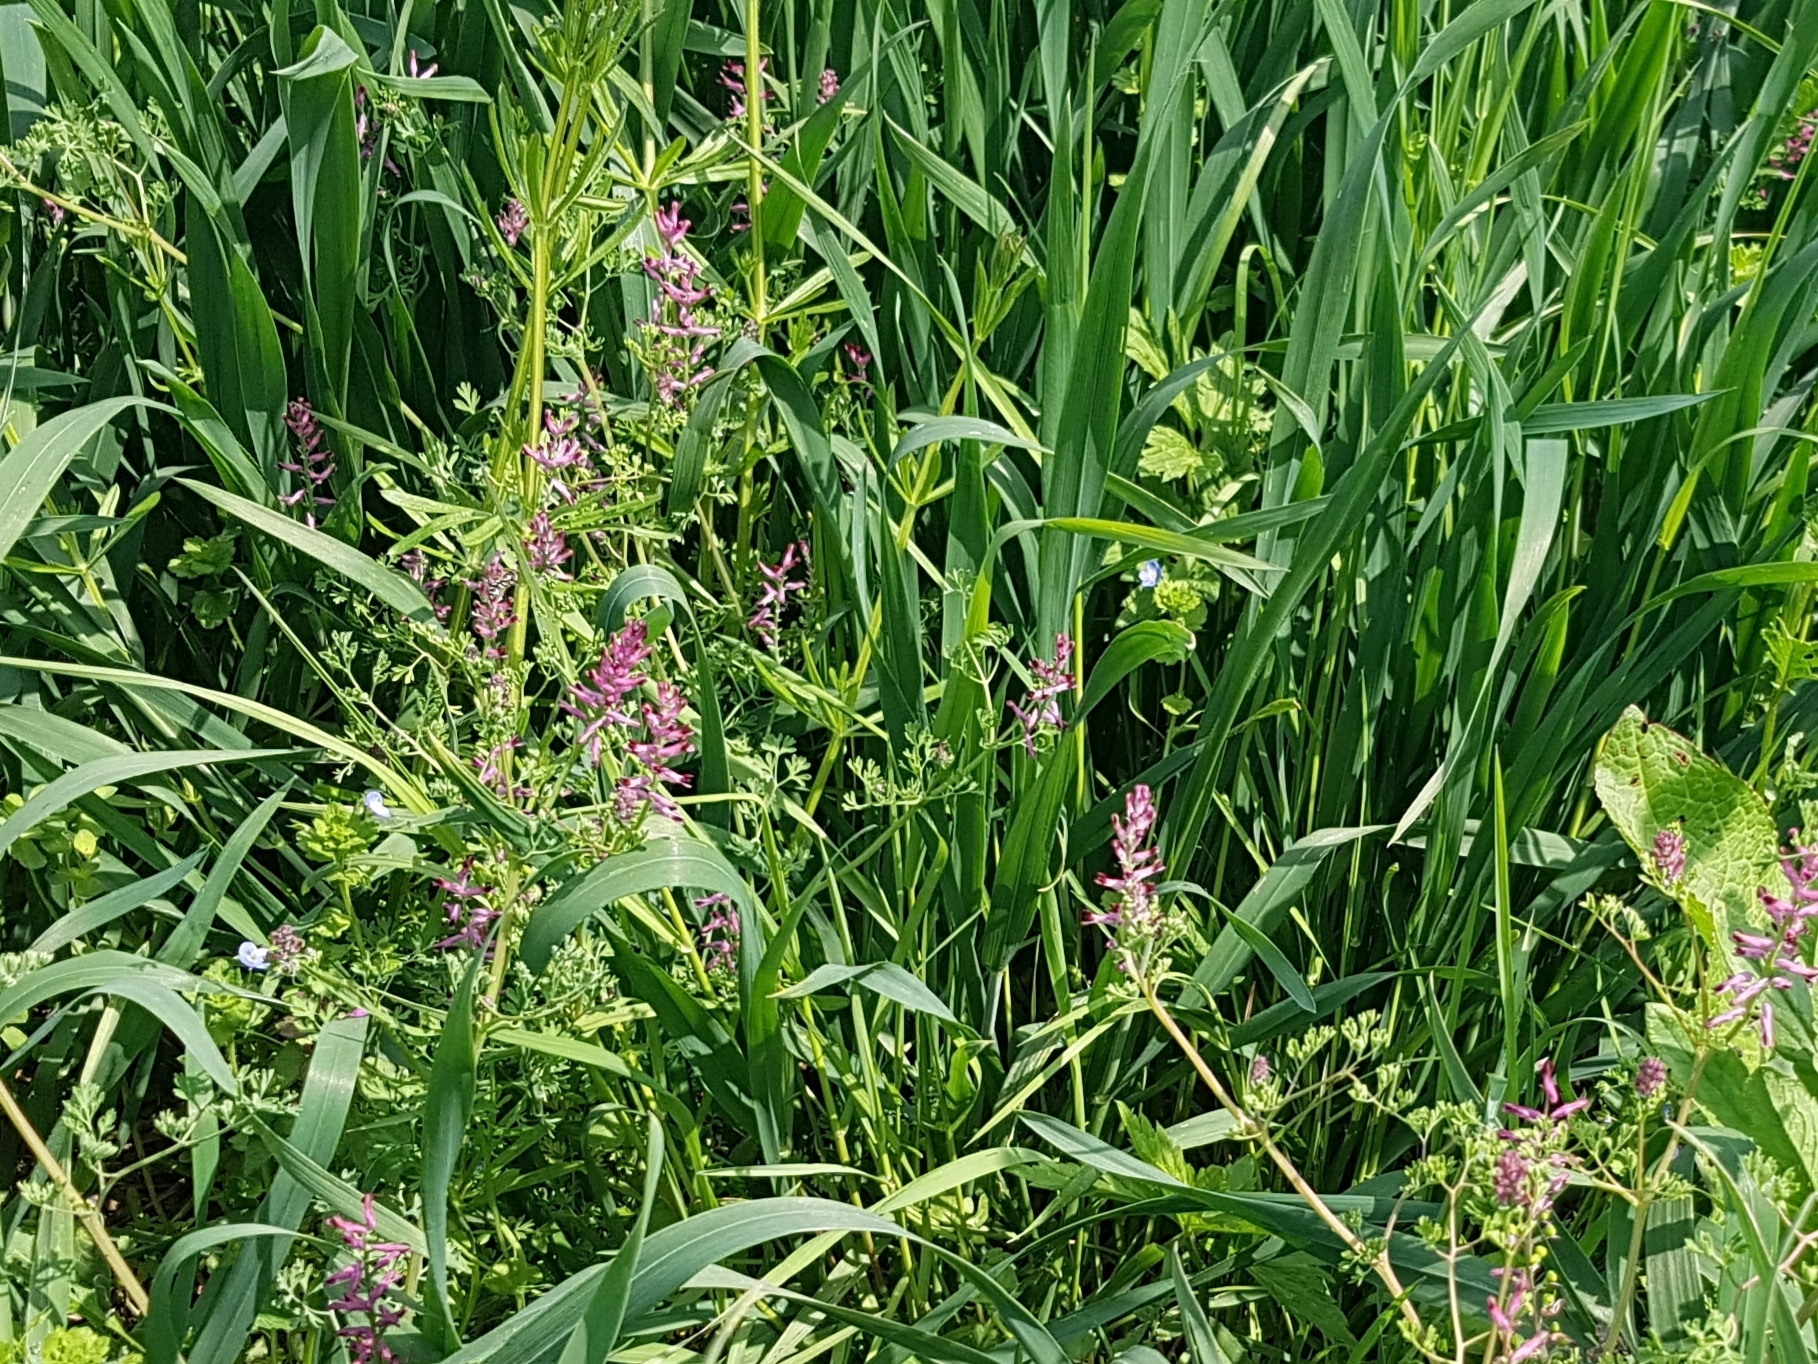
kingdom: Plantae
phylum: Tracheophyta
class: Magnoliopsida
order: Ranunculales
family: Papaveraceae
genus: Fumaria
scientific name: Fumaria officinalis
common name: Common fumitory
